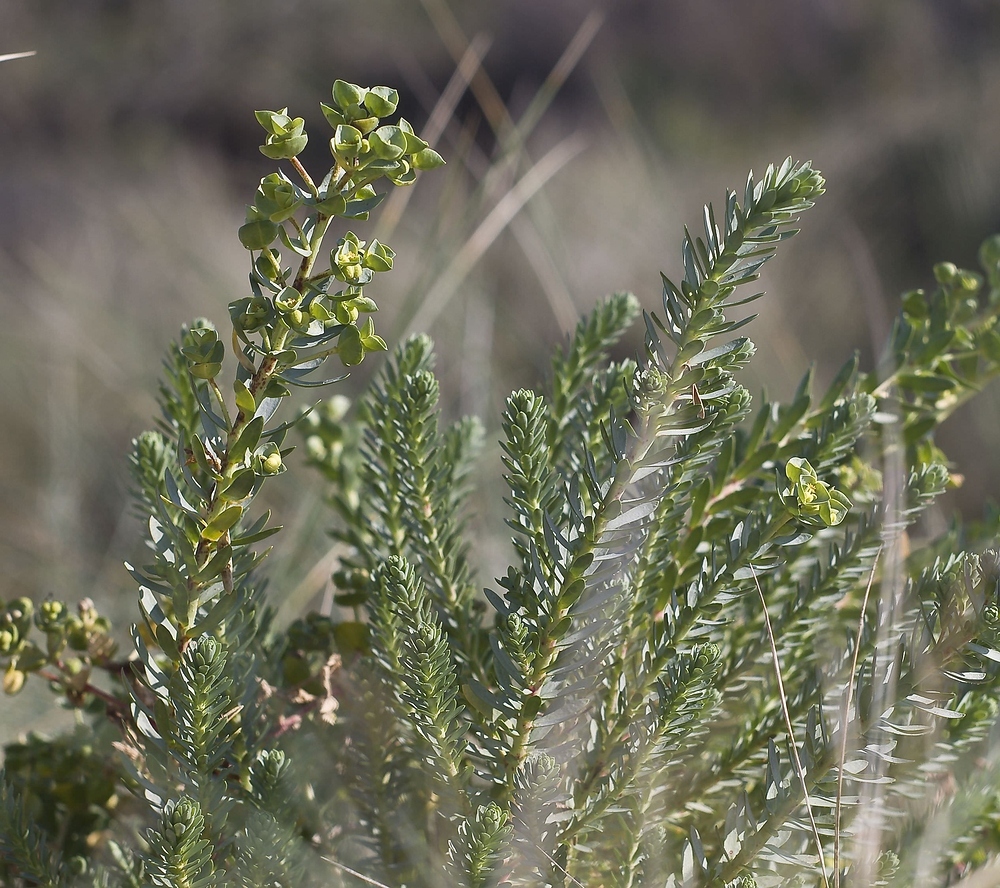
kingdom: Plantae
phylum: Tracheophyta
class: Magnoliopsida
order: Malpighiales
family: Euphorbiaceae
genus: Euphorbia
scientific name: Euphorbia paralias
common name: Sea spurge
